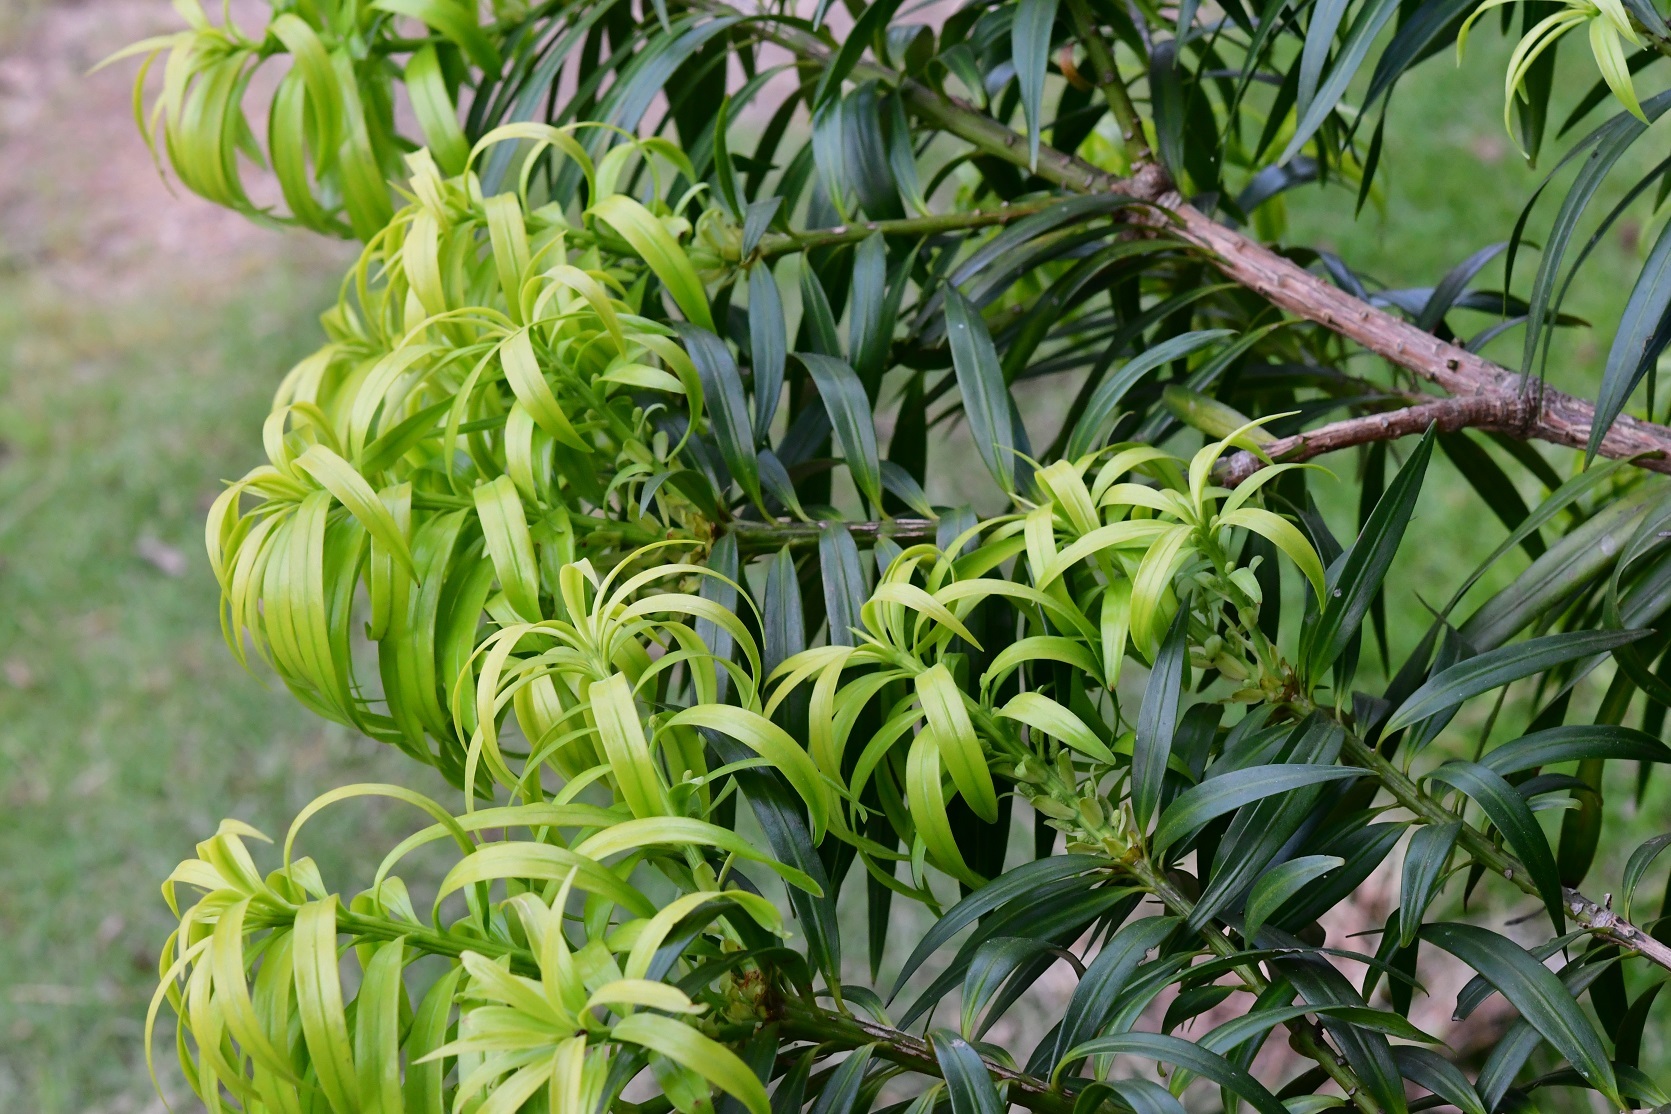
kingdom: Plantae
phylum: Tracheophyta
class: Pinopsida
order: Pinales
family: Podocarpaceae
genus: Podocarpus
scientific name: Podocarpus matudae
